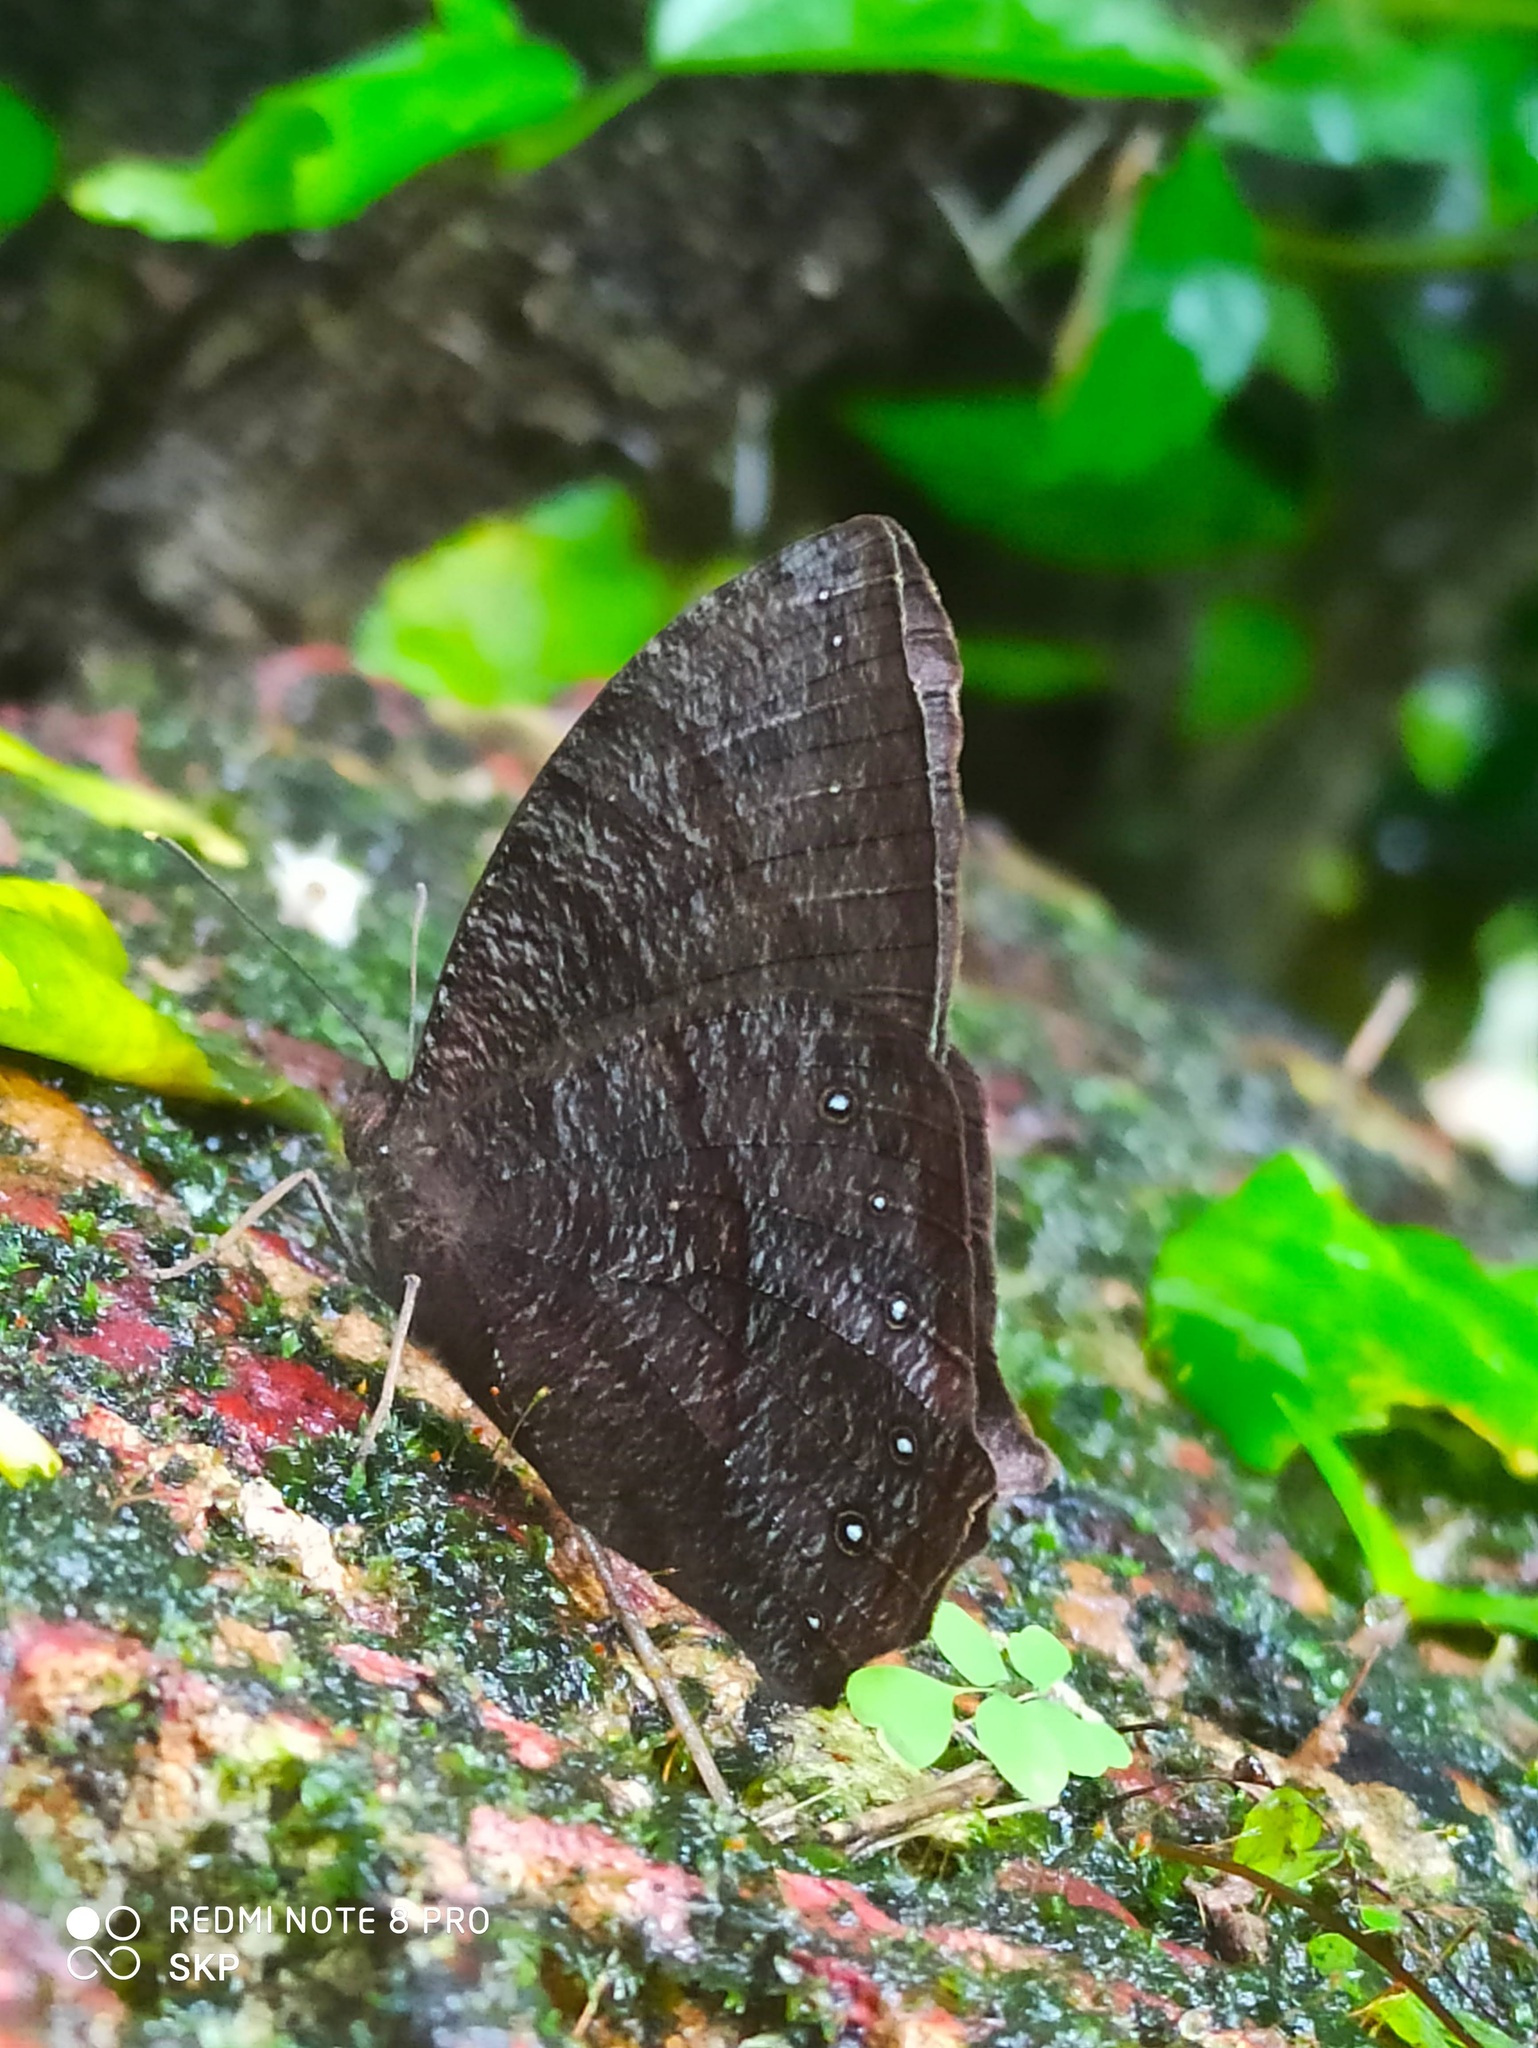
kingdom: Animalia
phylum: Arthropoda
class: Insecta
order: Lepidoptera
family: Nymphalidae
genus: Melanitis
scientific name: Melanitis phedima
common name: Dark evening brown
